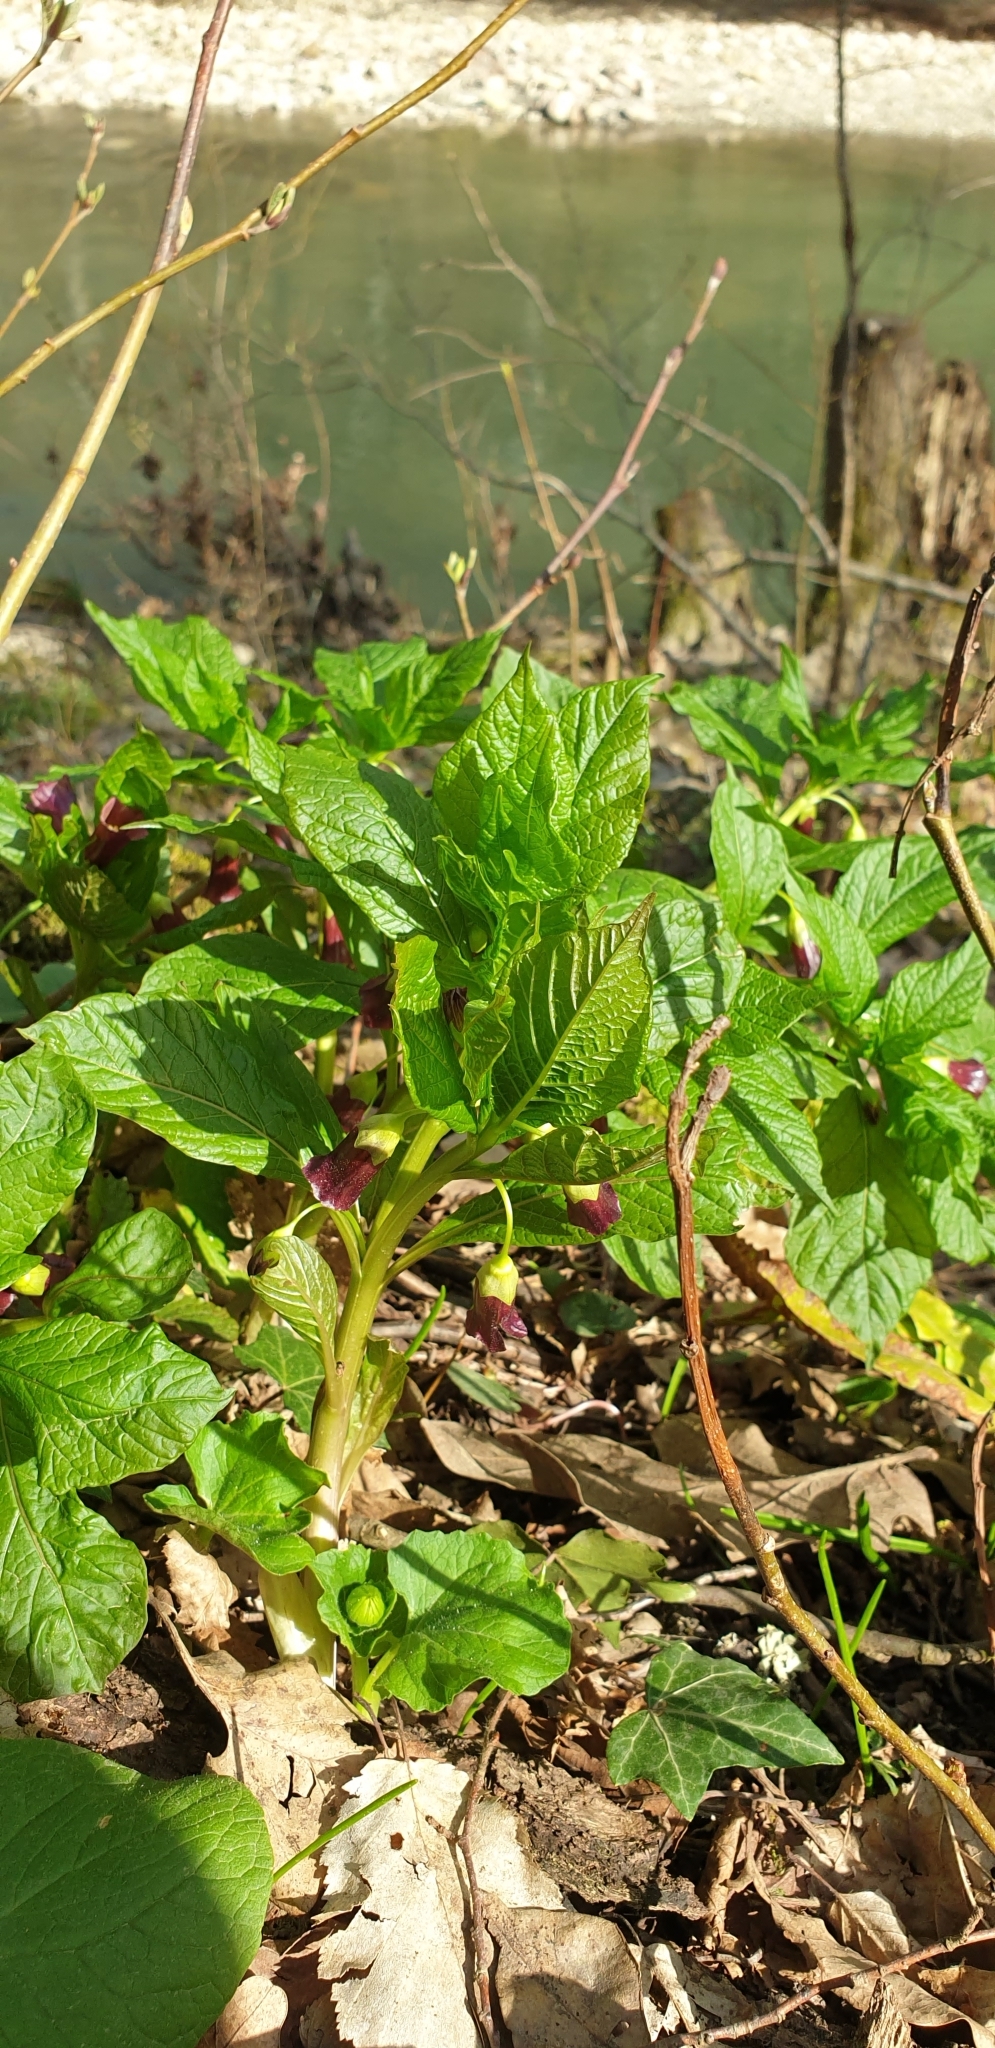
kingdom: Plantae
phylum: Tracheophyta
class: Magnoliopsida
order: Solanales
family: Solanaceae
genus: Scopolia
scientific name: Scopolia carniolica
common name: Scopolia
